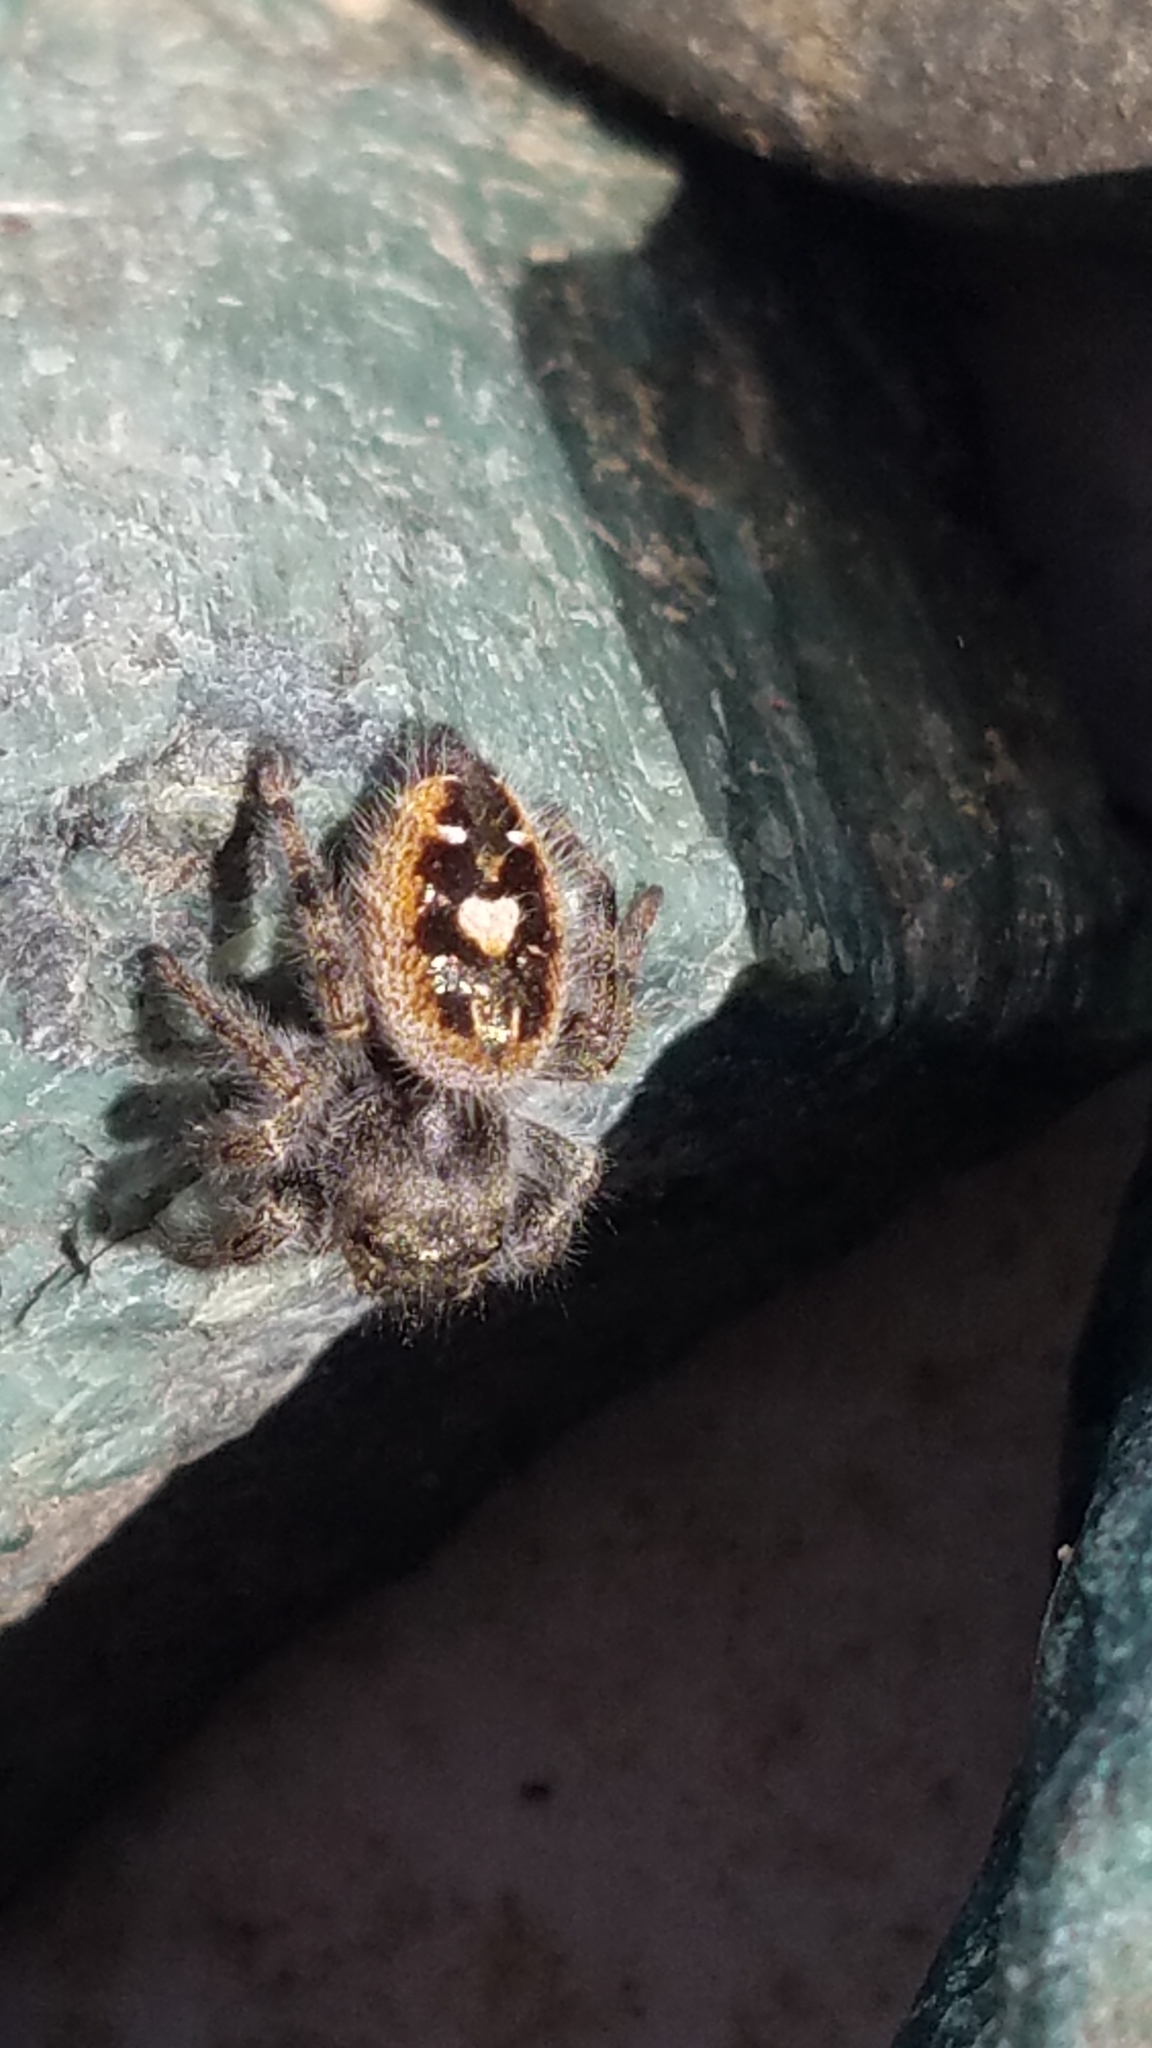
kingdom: Animalia
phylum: Arthropoda
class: Arachnida
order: Araneae
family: Salticidae
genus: Phidippus
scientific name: Phidippus audax
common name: Bold jumper
